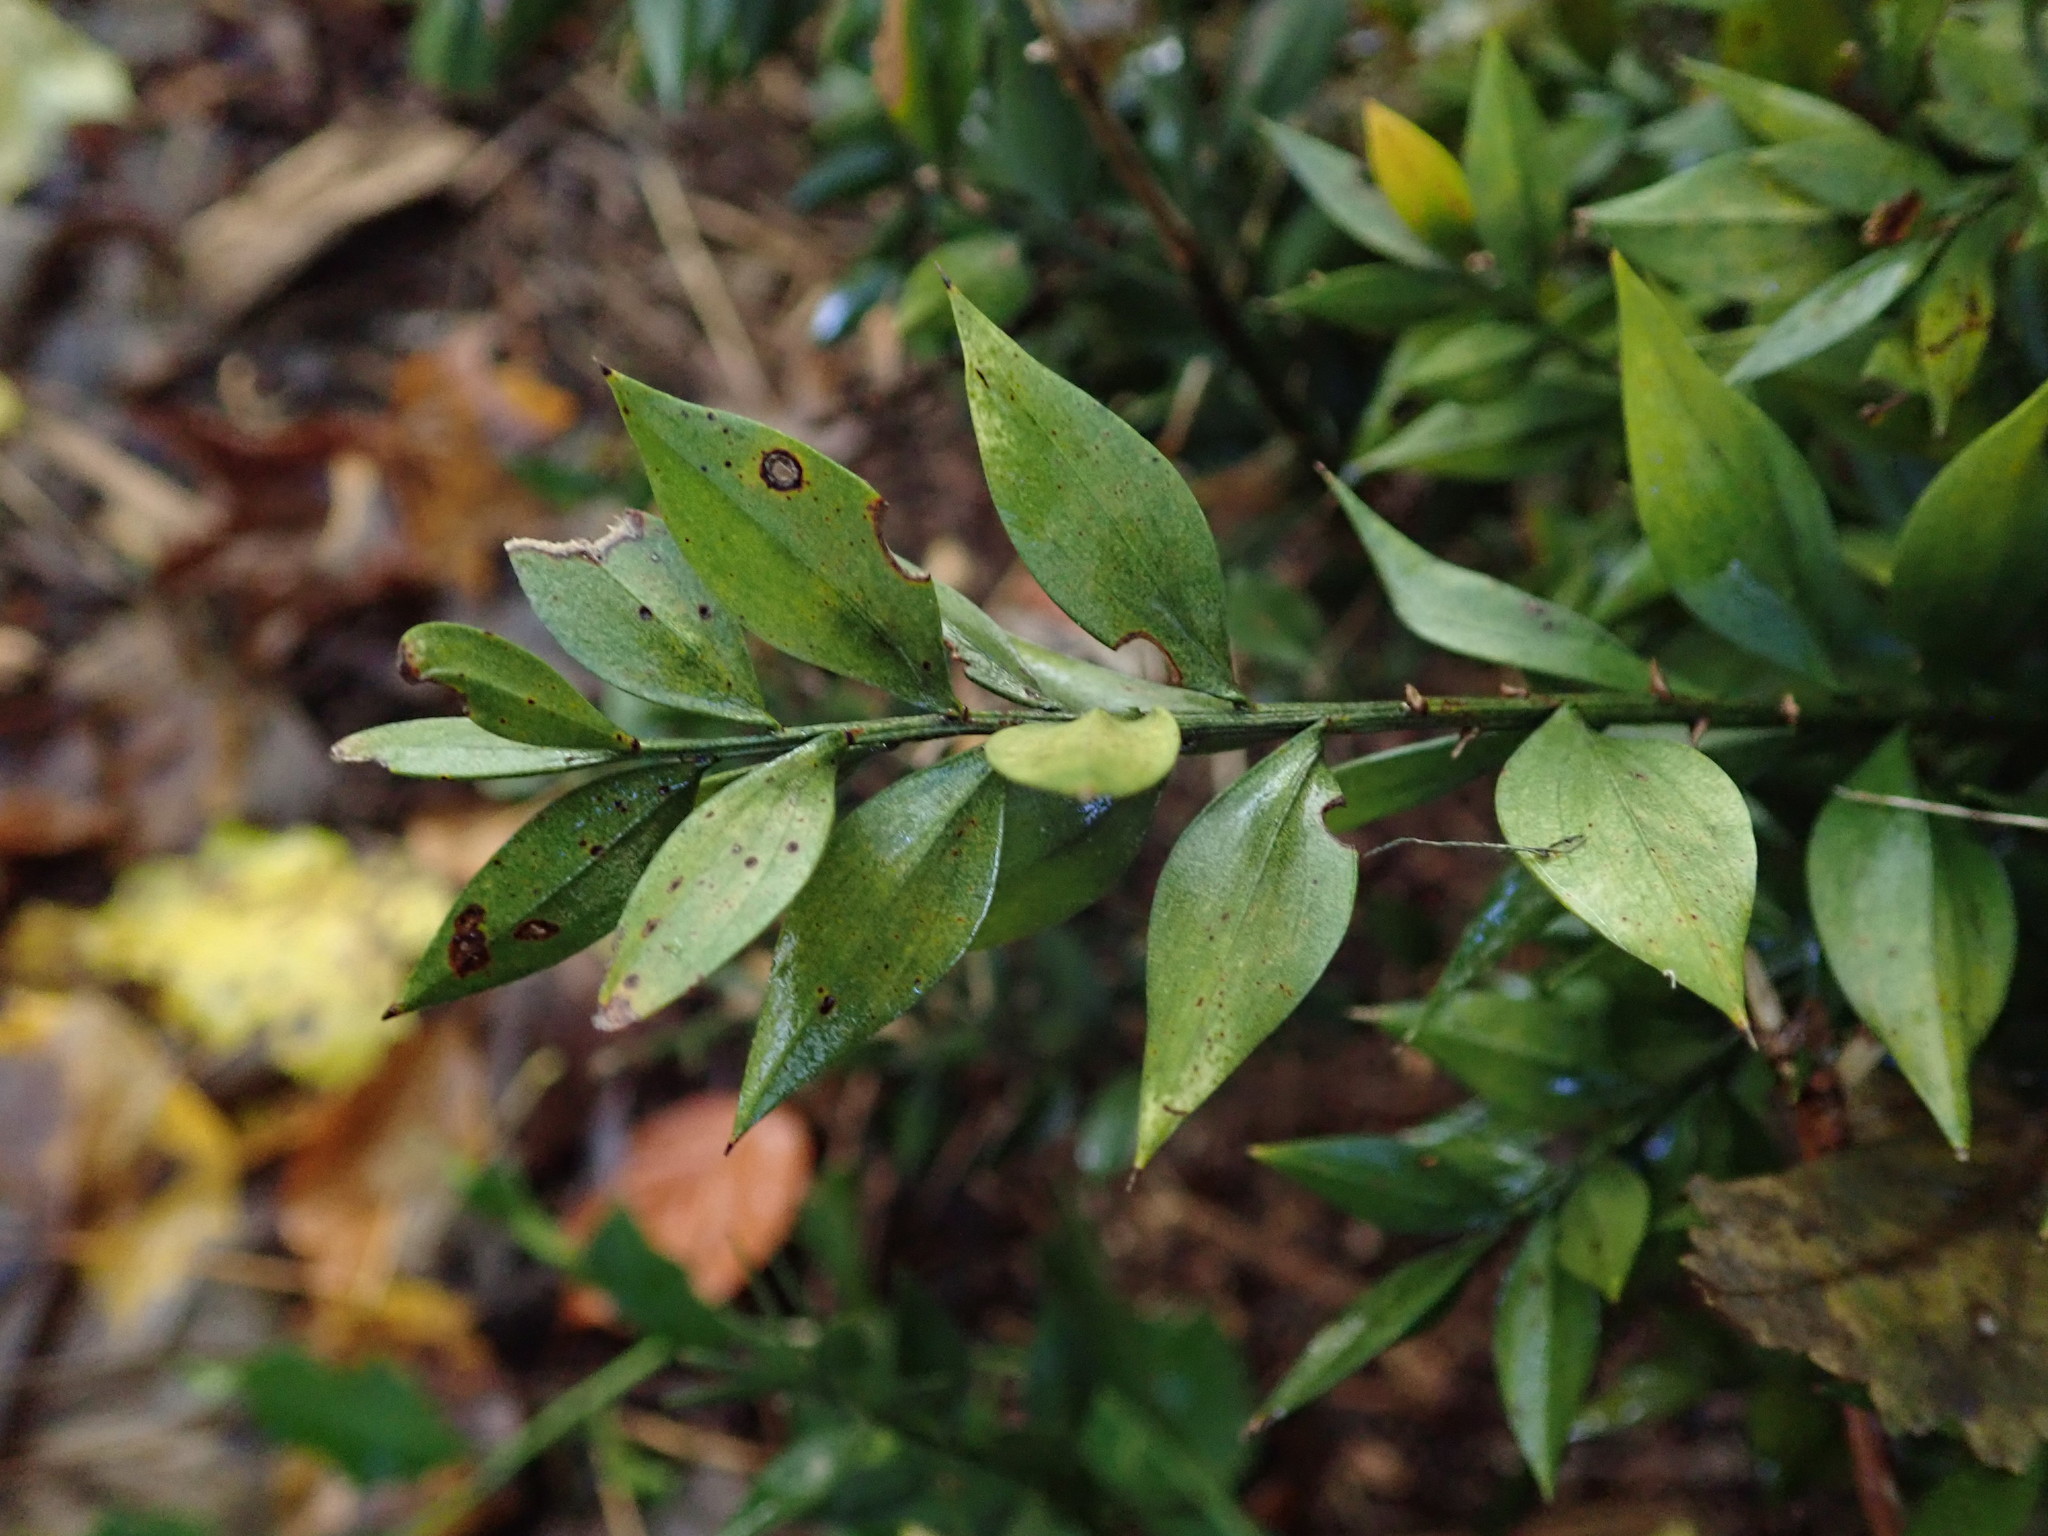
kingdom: Plantae
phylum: Tracheophyta
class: Liliopsida
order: Asparagales
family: Asparagaceae
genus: Ruscus
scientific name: Ruscus aculeatus
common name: Butcher's-broom
